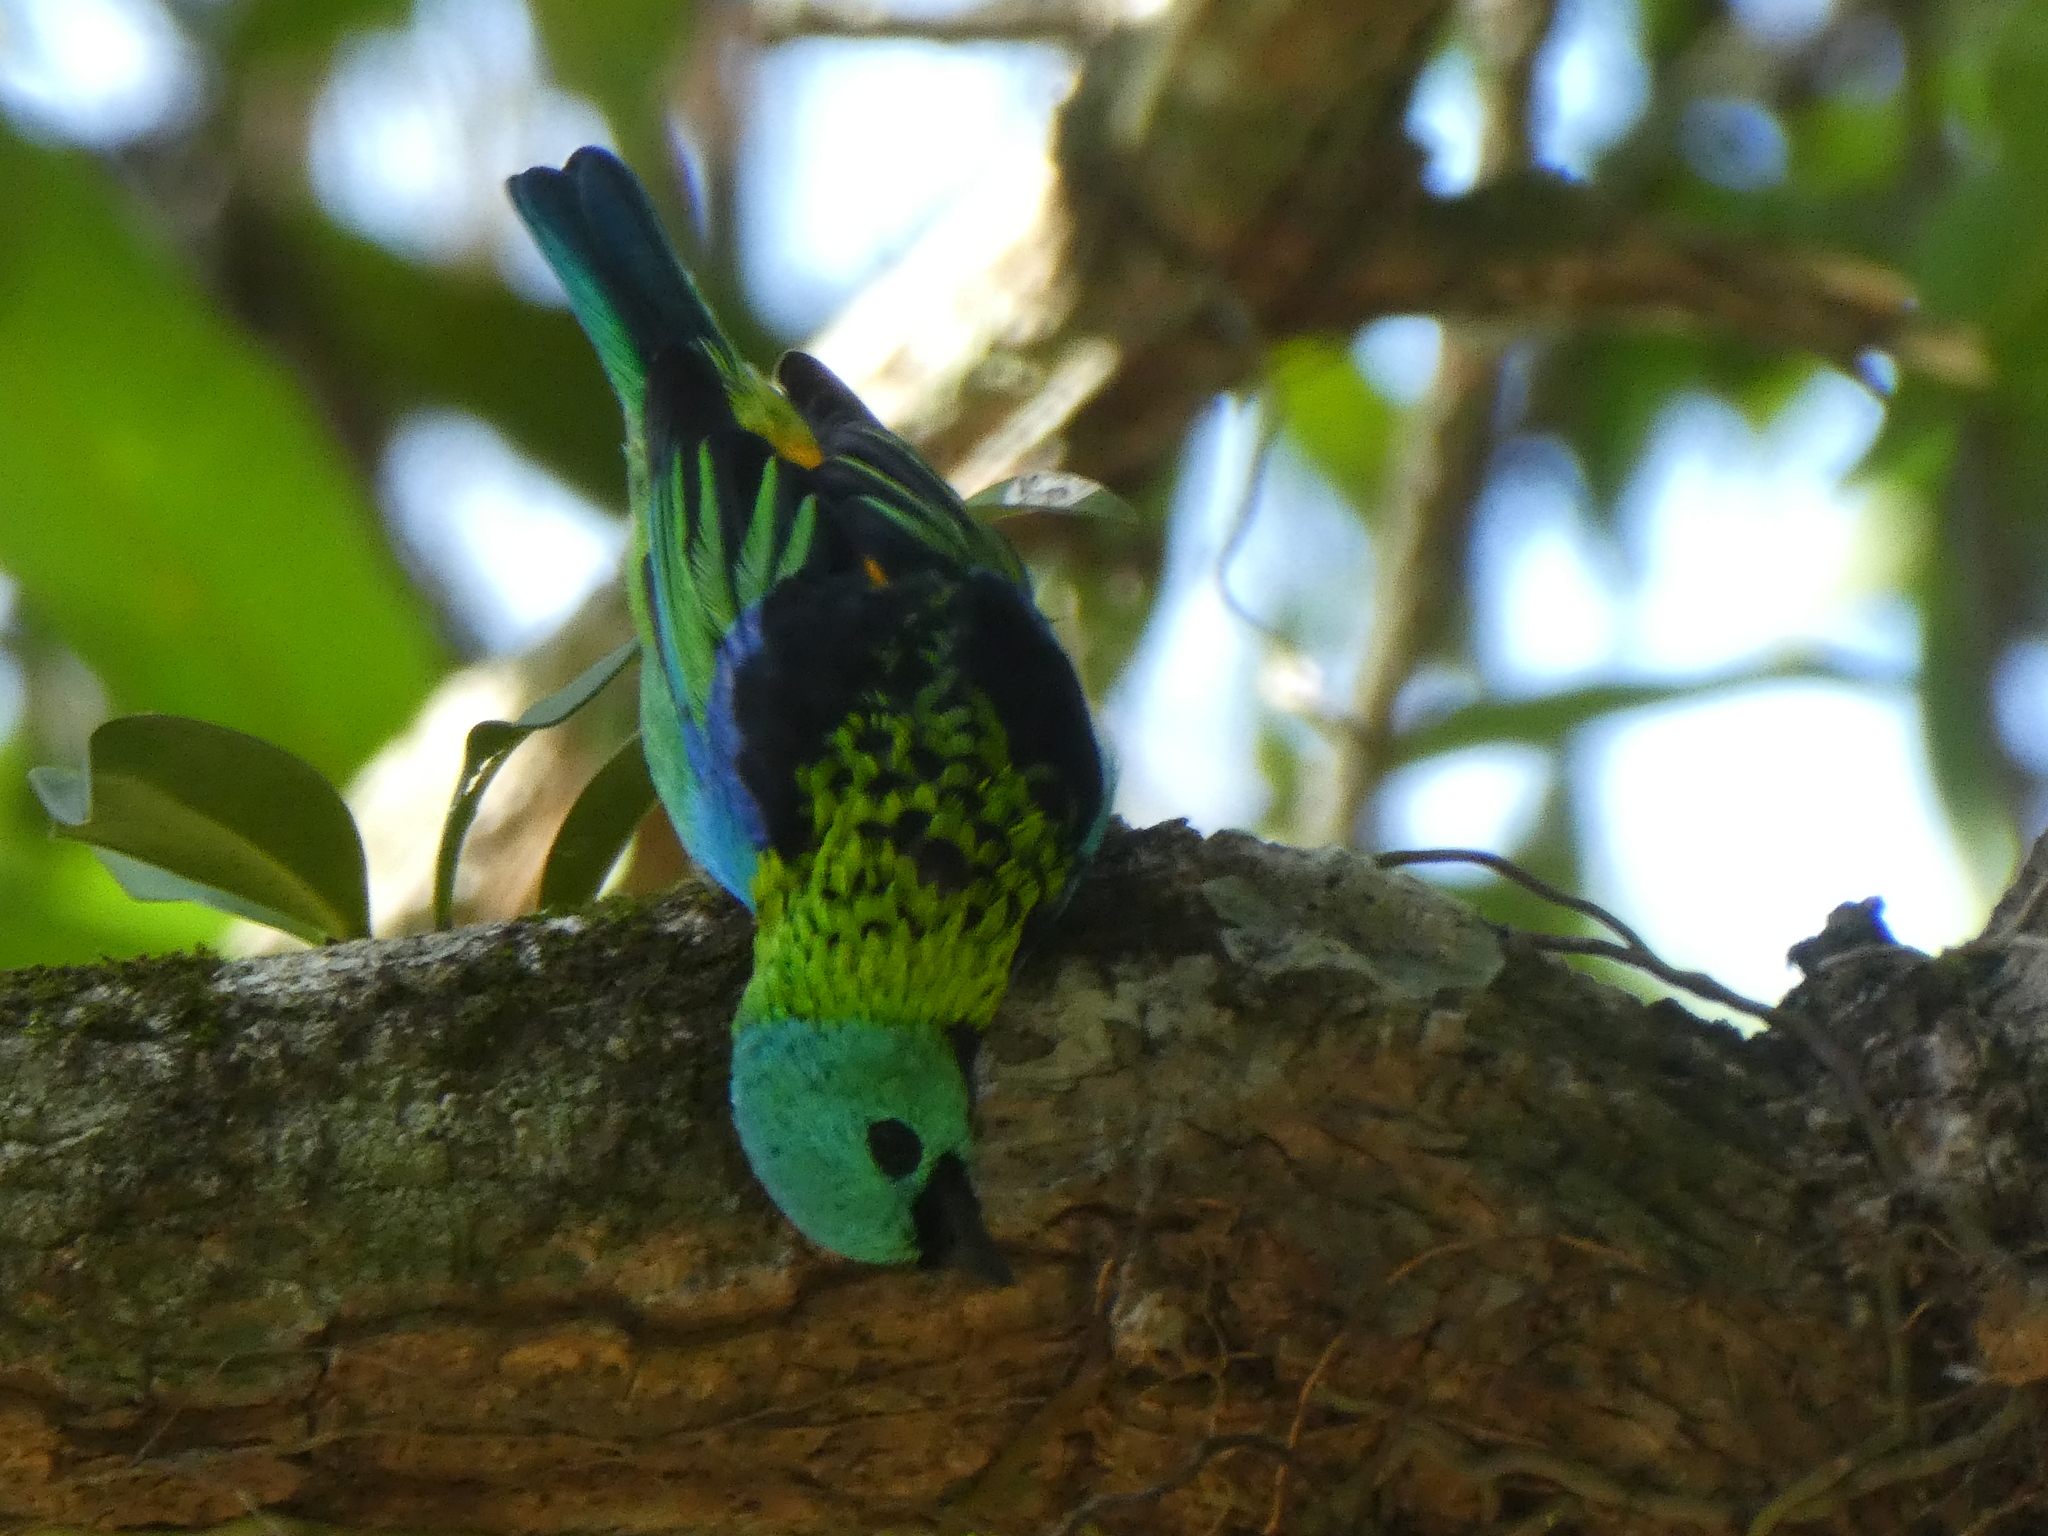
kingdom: Animalia
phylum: Chordata
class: Aves
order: Passeriformes
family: Thraupidae
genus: Tangara
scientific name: Tangara seledon
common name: Green-headed tanager
